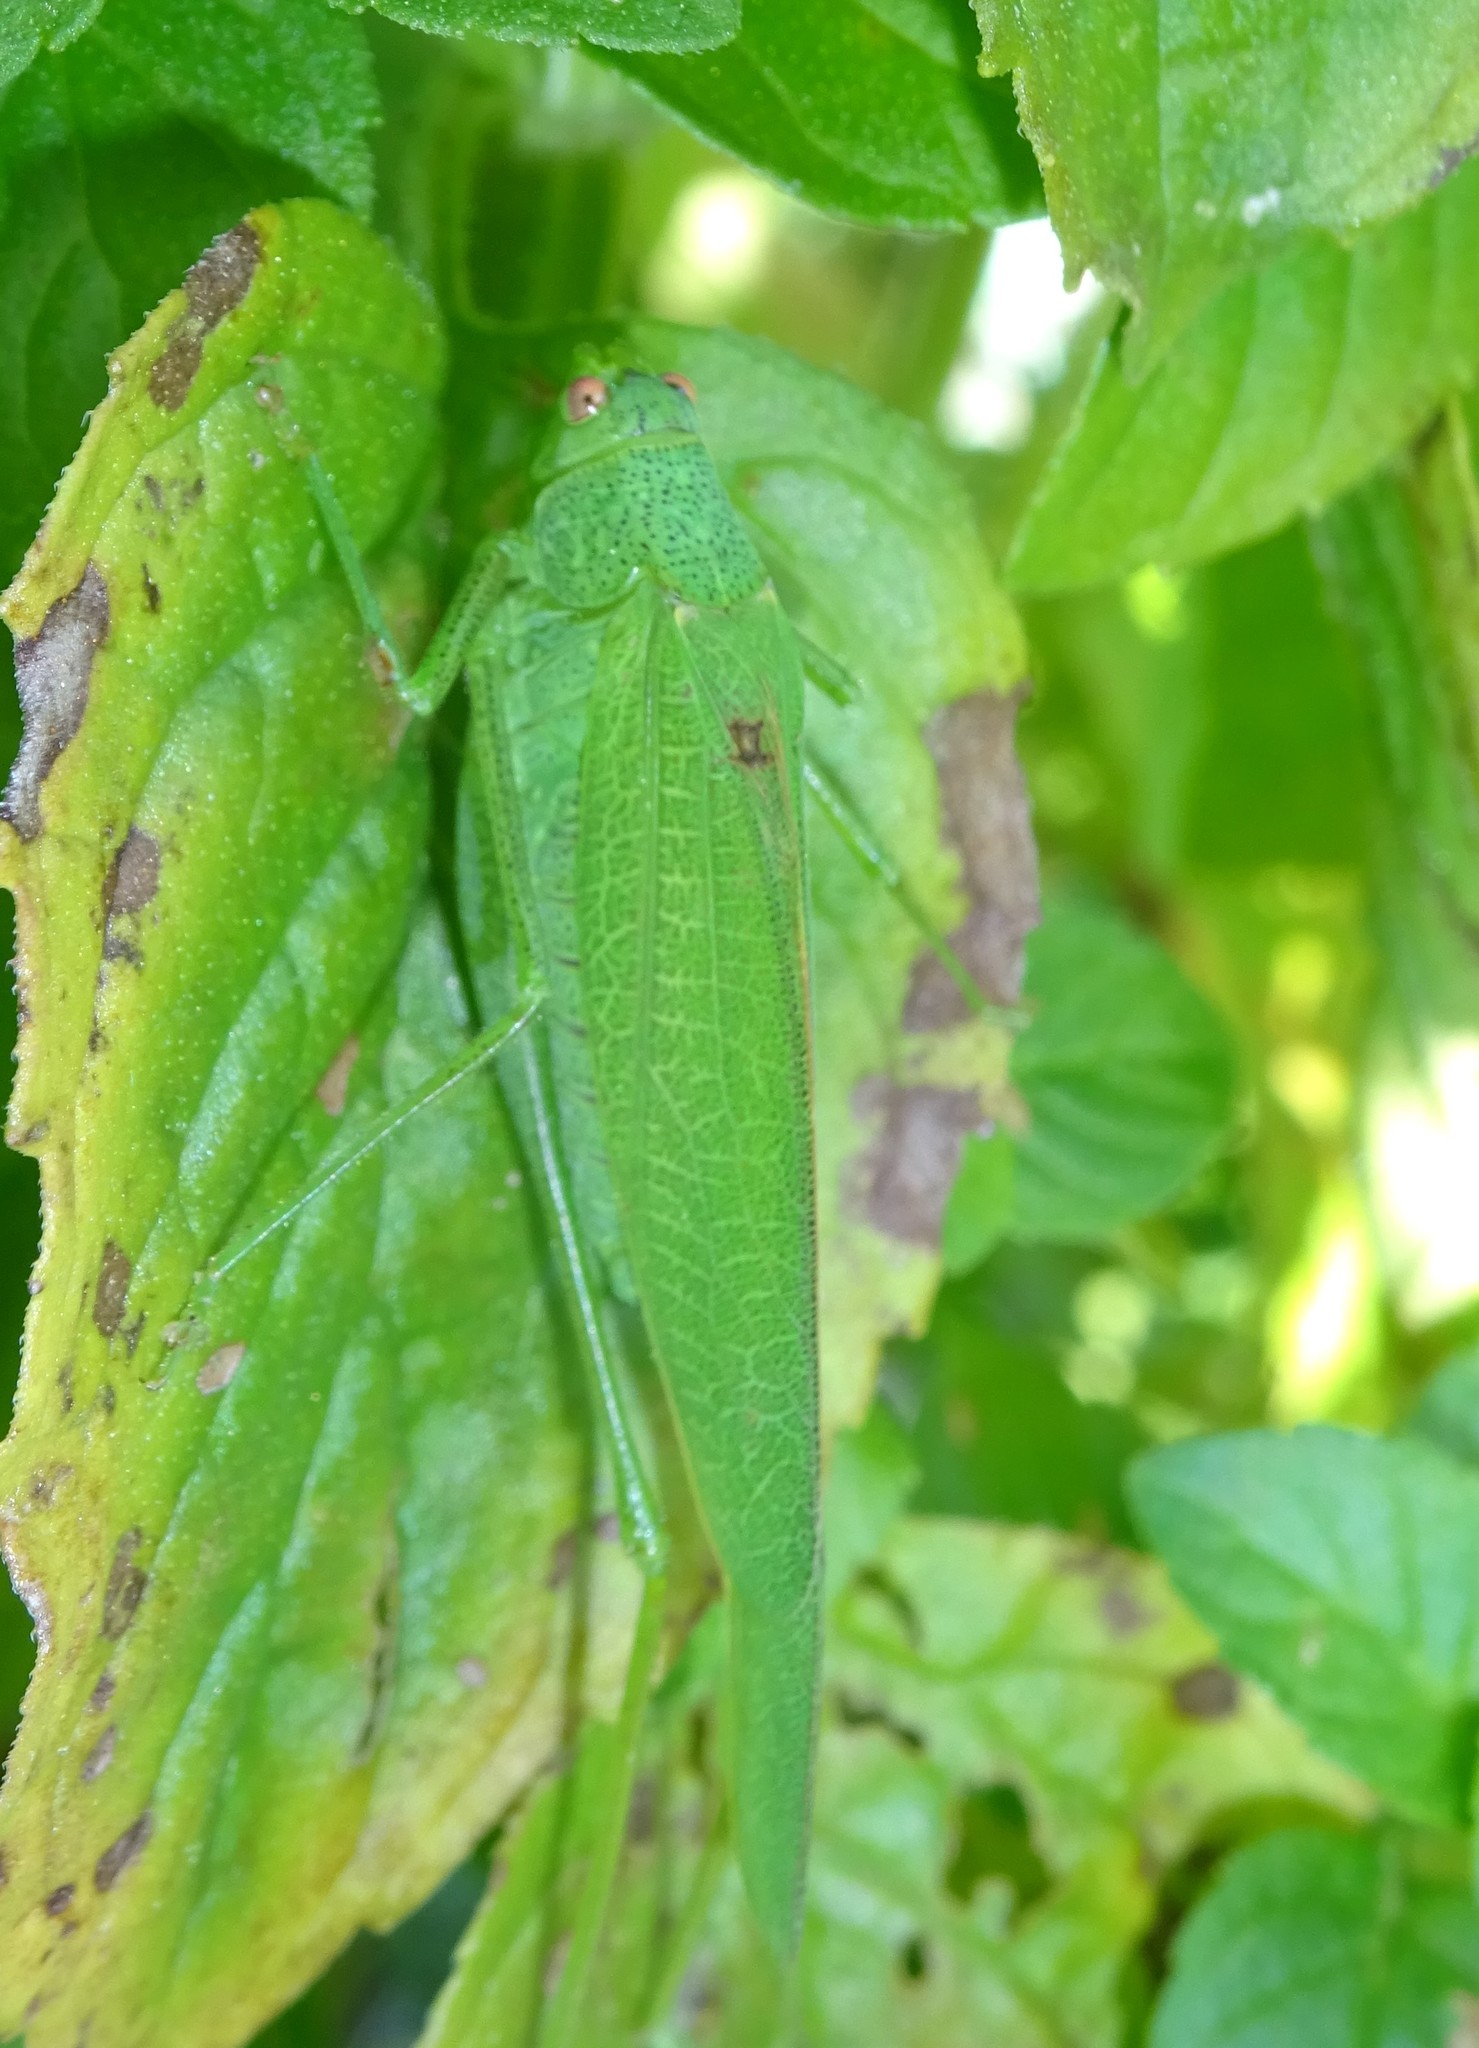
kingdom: Animalia
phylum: Arthropoda
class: Insecta
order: Orthoptera
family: Tettigoniidae
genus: Phaneroptera
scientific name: Phaneroptera nana
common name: Southern sickle bush-cricket
